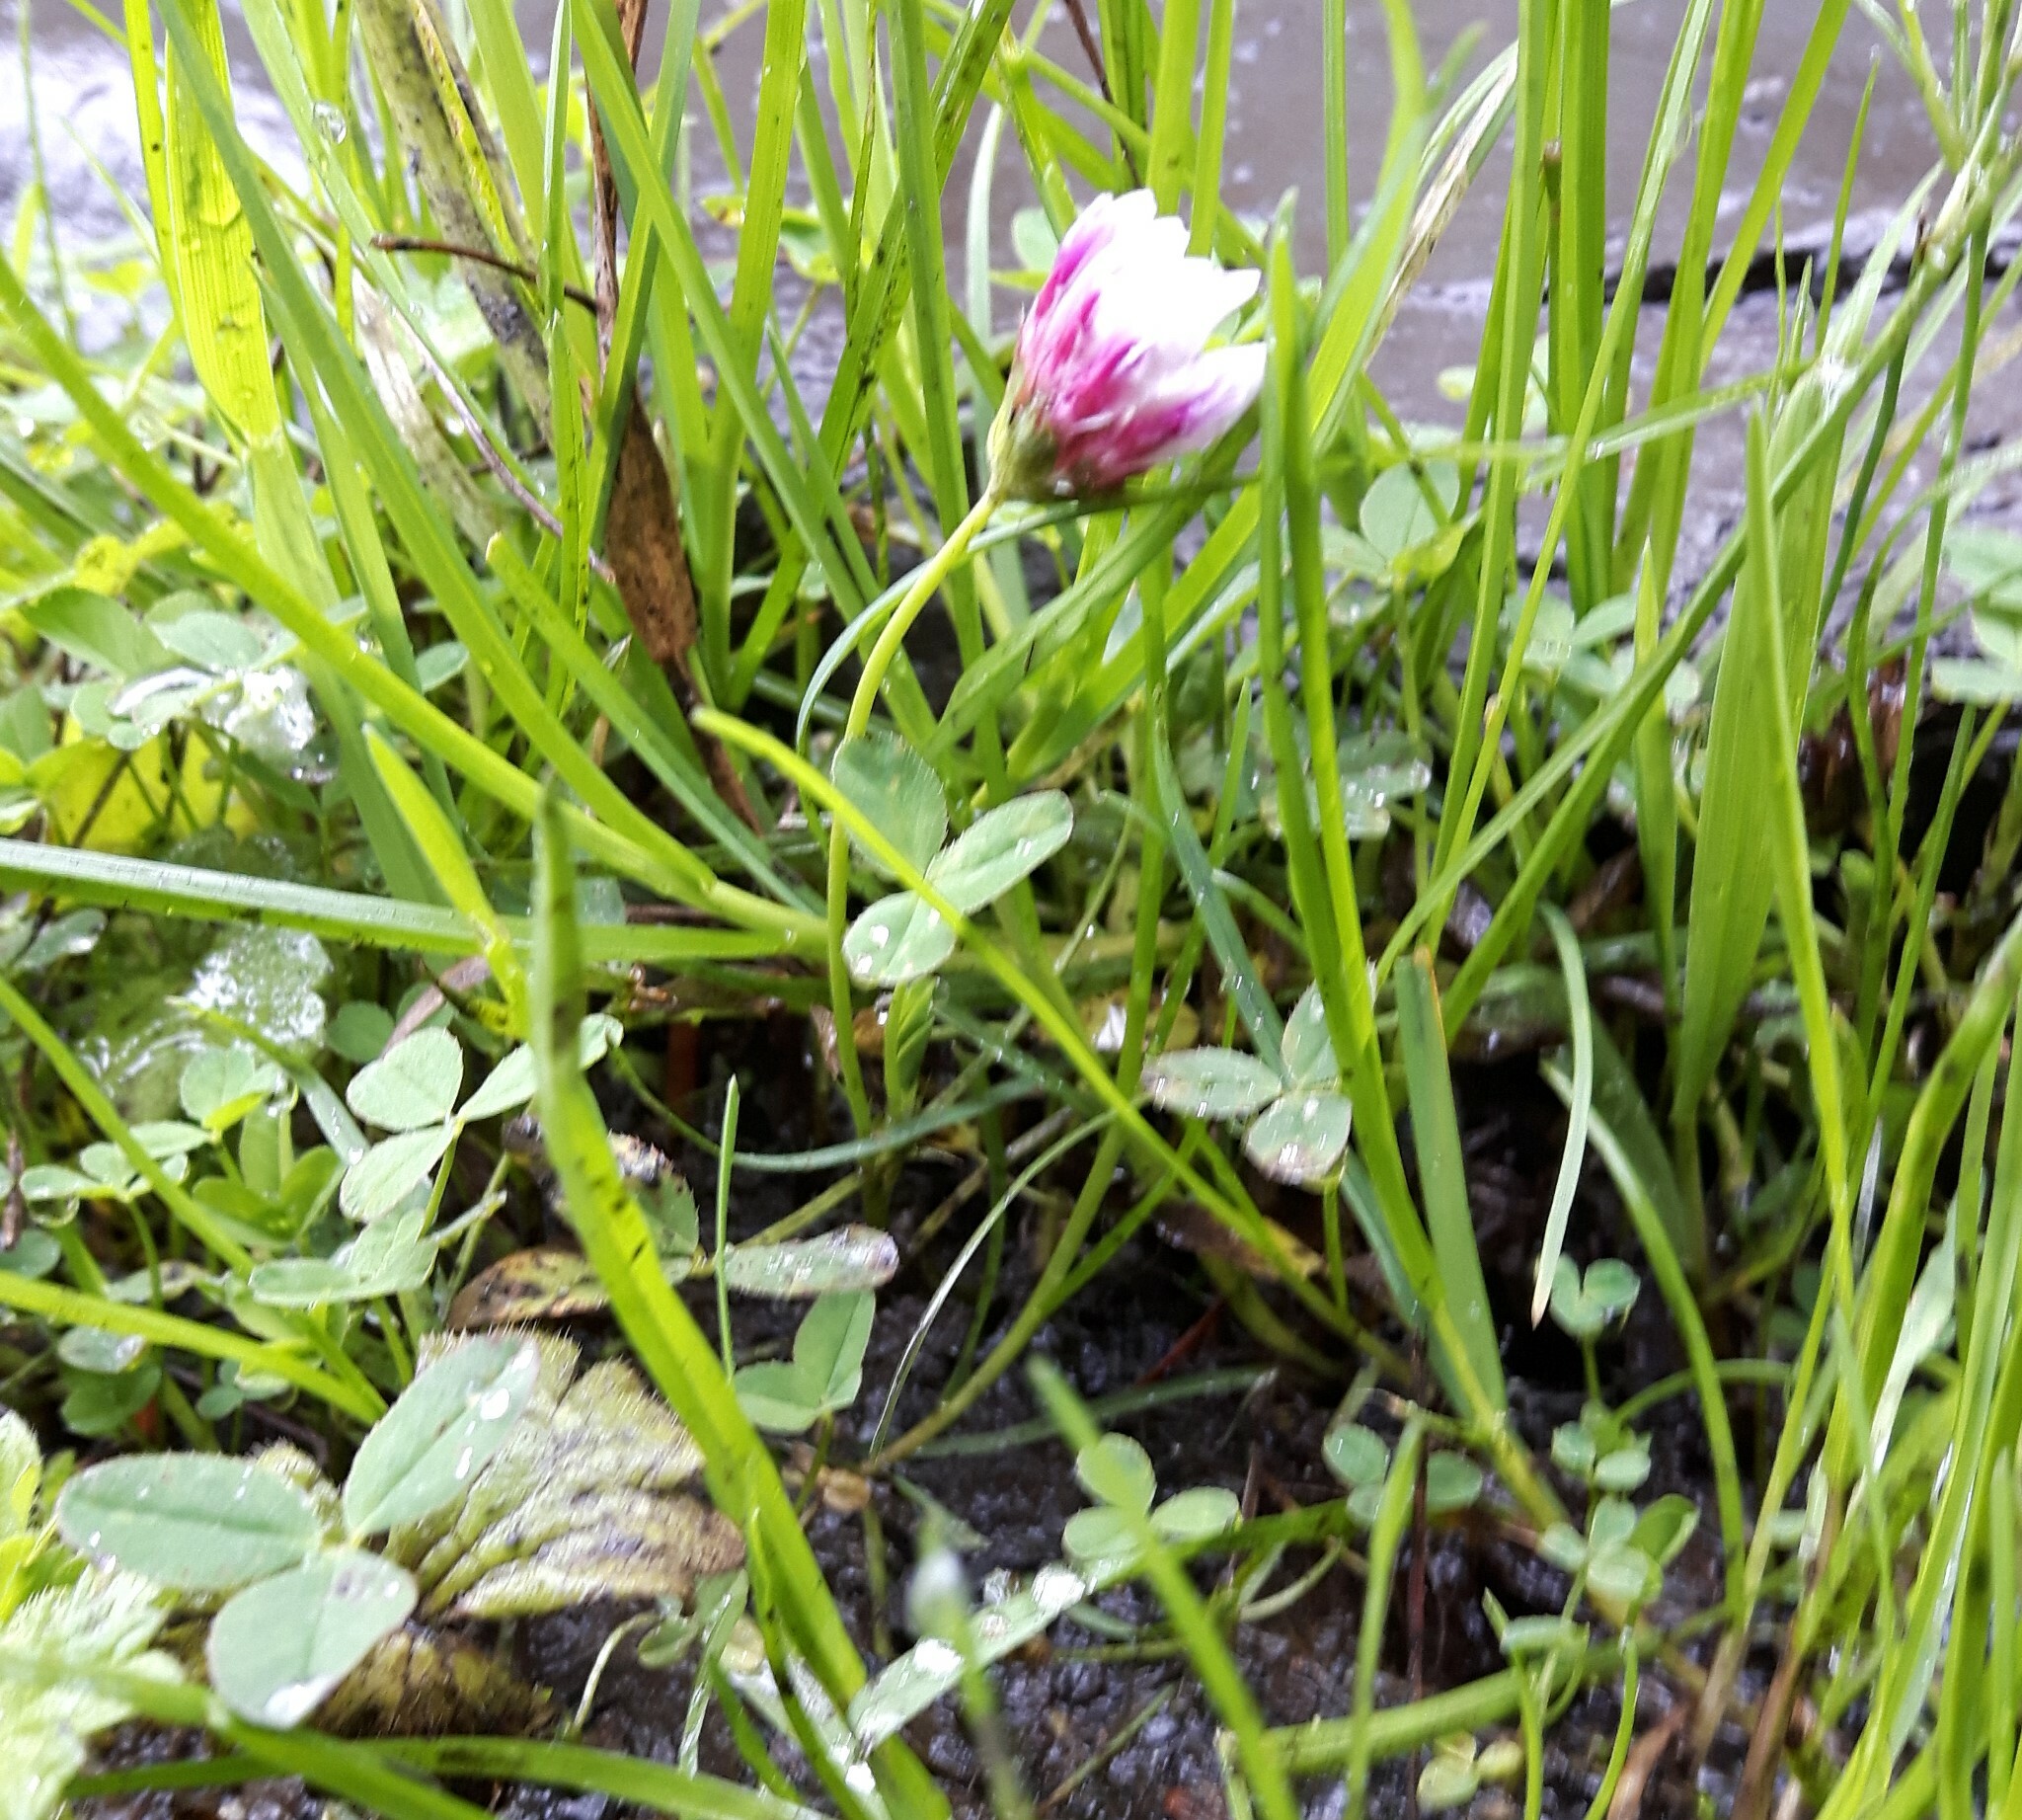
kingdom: Plantae
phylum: Tracheophyta
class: Magnoliopsida
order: Fabales
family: Fabaceae
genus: Trifolium
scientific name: Trifolium wormskioldii
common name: Springbank clover
